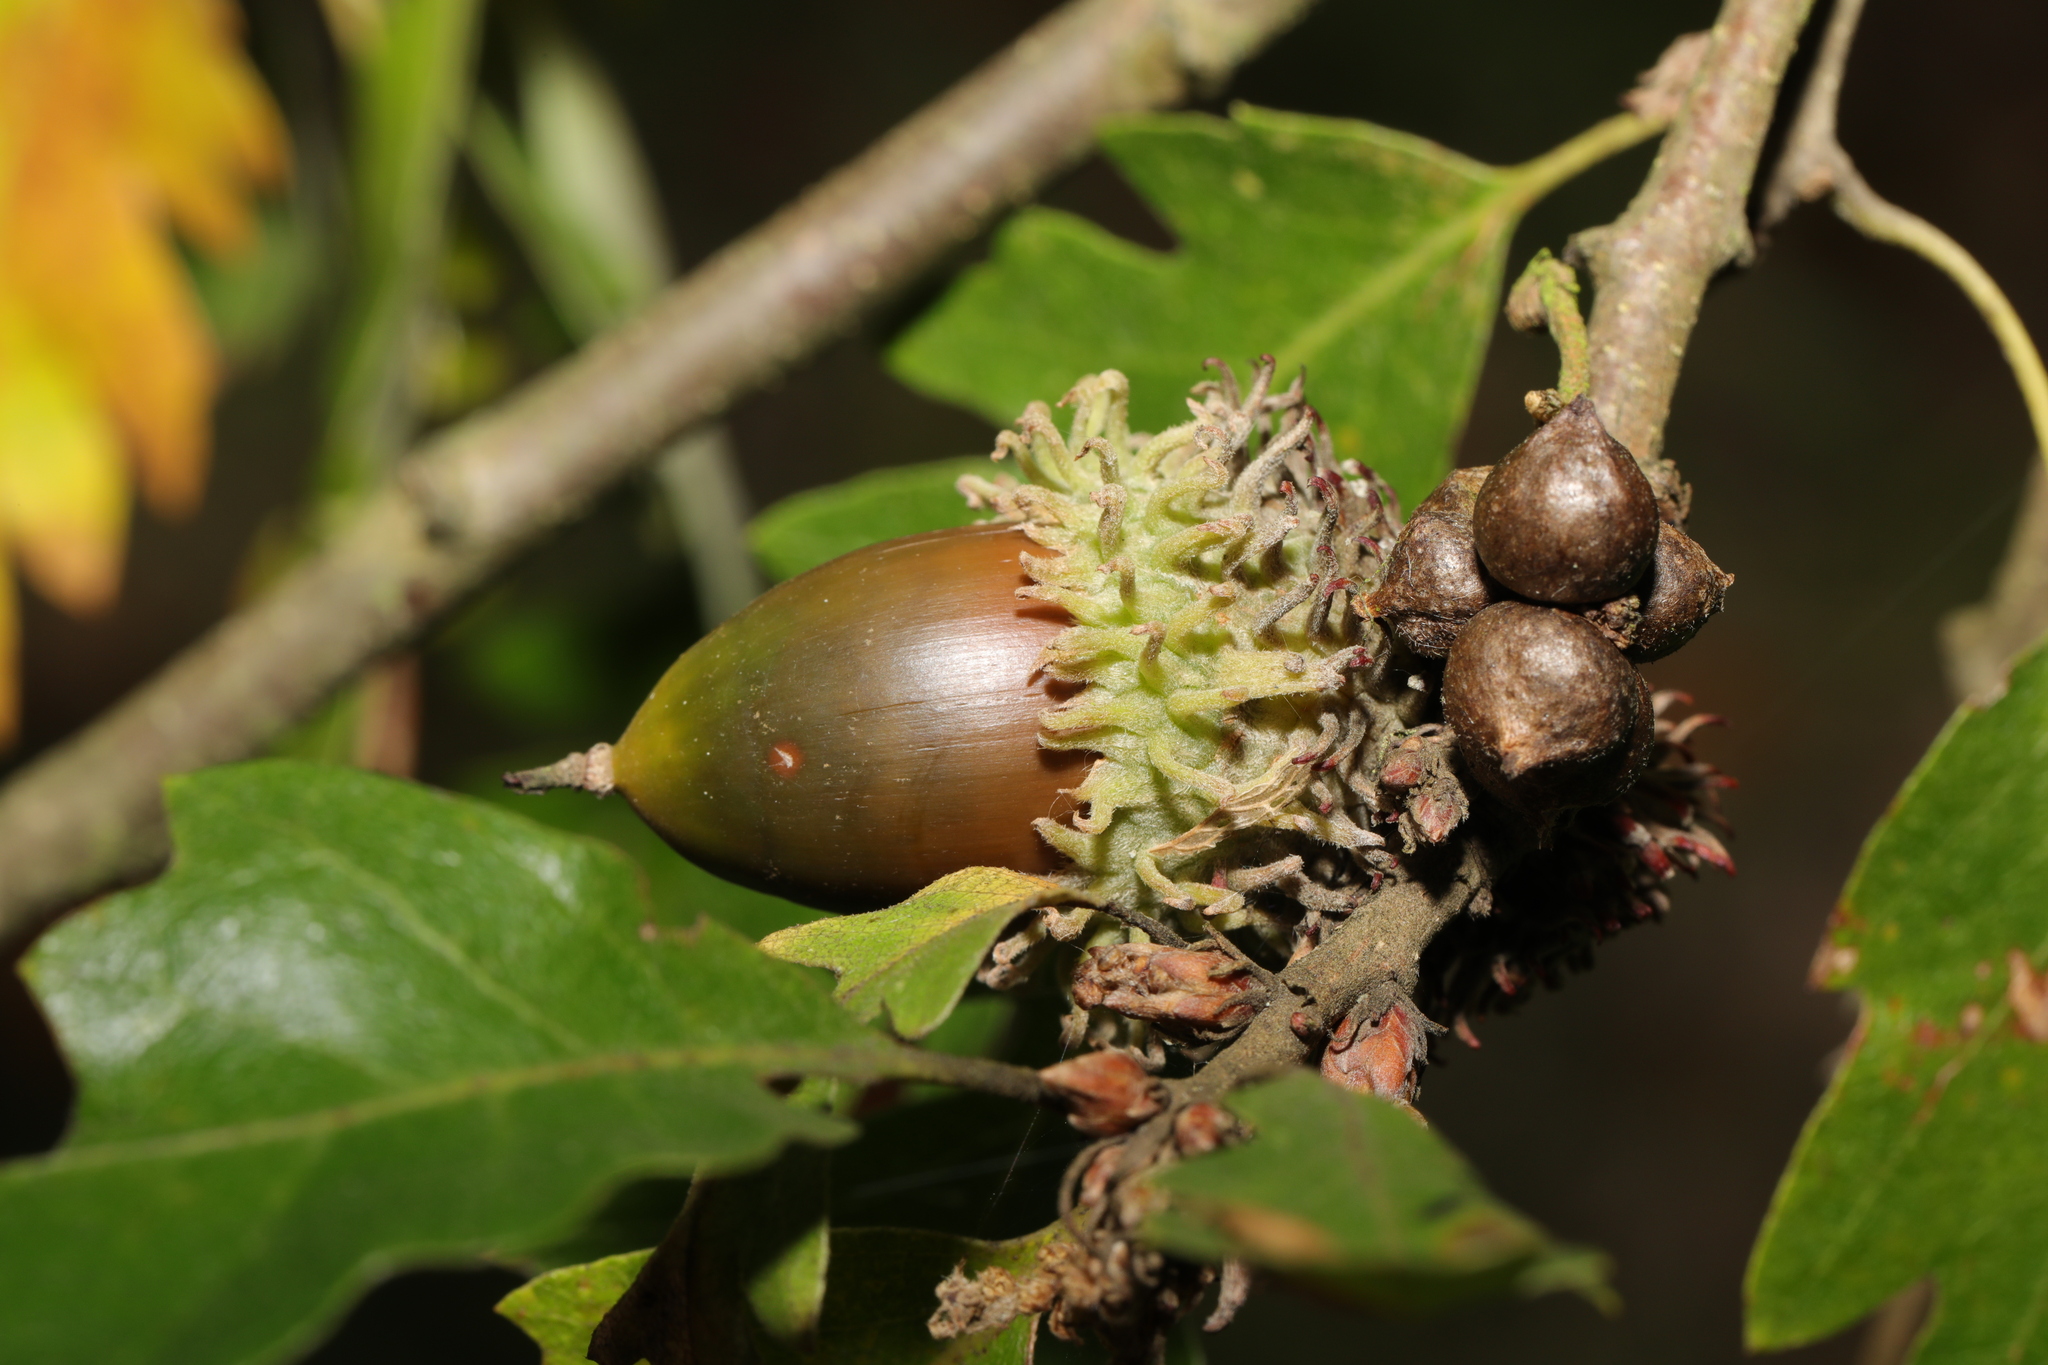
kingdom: Plantae
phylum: Tracheophyta
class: Magnoliopsida
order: Fagales
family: Fagaceae
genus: Quercus
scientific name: Quercus cerris
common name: Turkey oak
